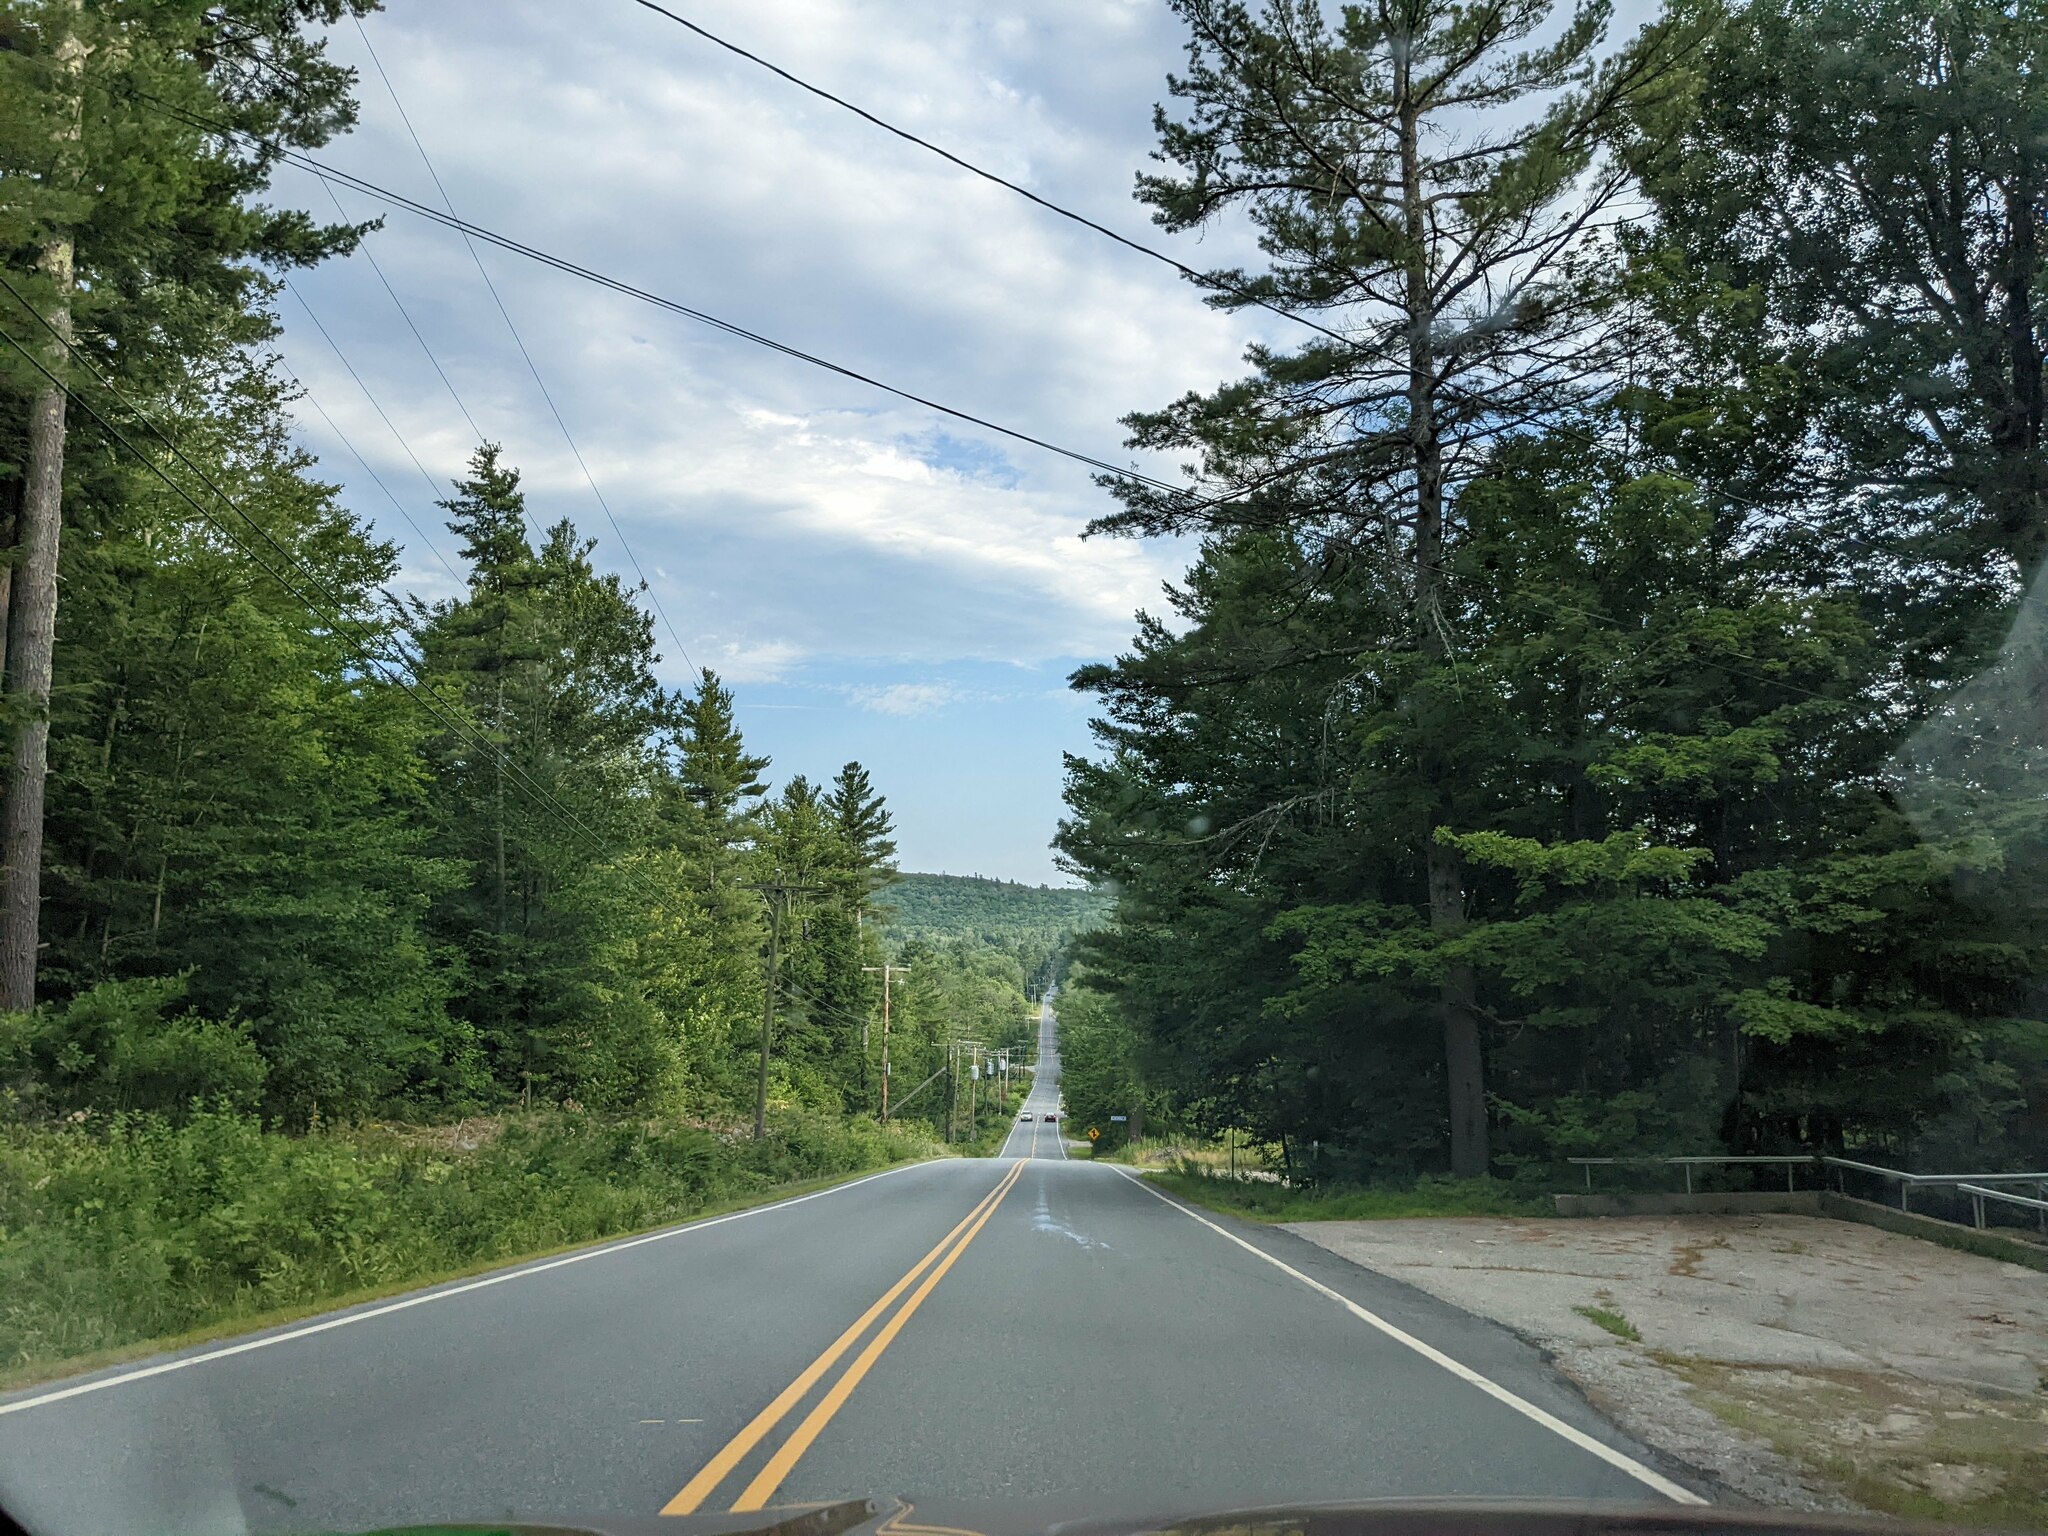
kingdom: Plantae
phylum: Tracheophyta
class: Pinopsida
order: Pinales
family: Pinaceae
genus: Pinus
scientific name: Pinus strobus
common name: Weymouth pine
